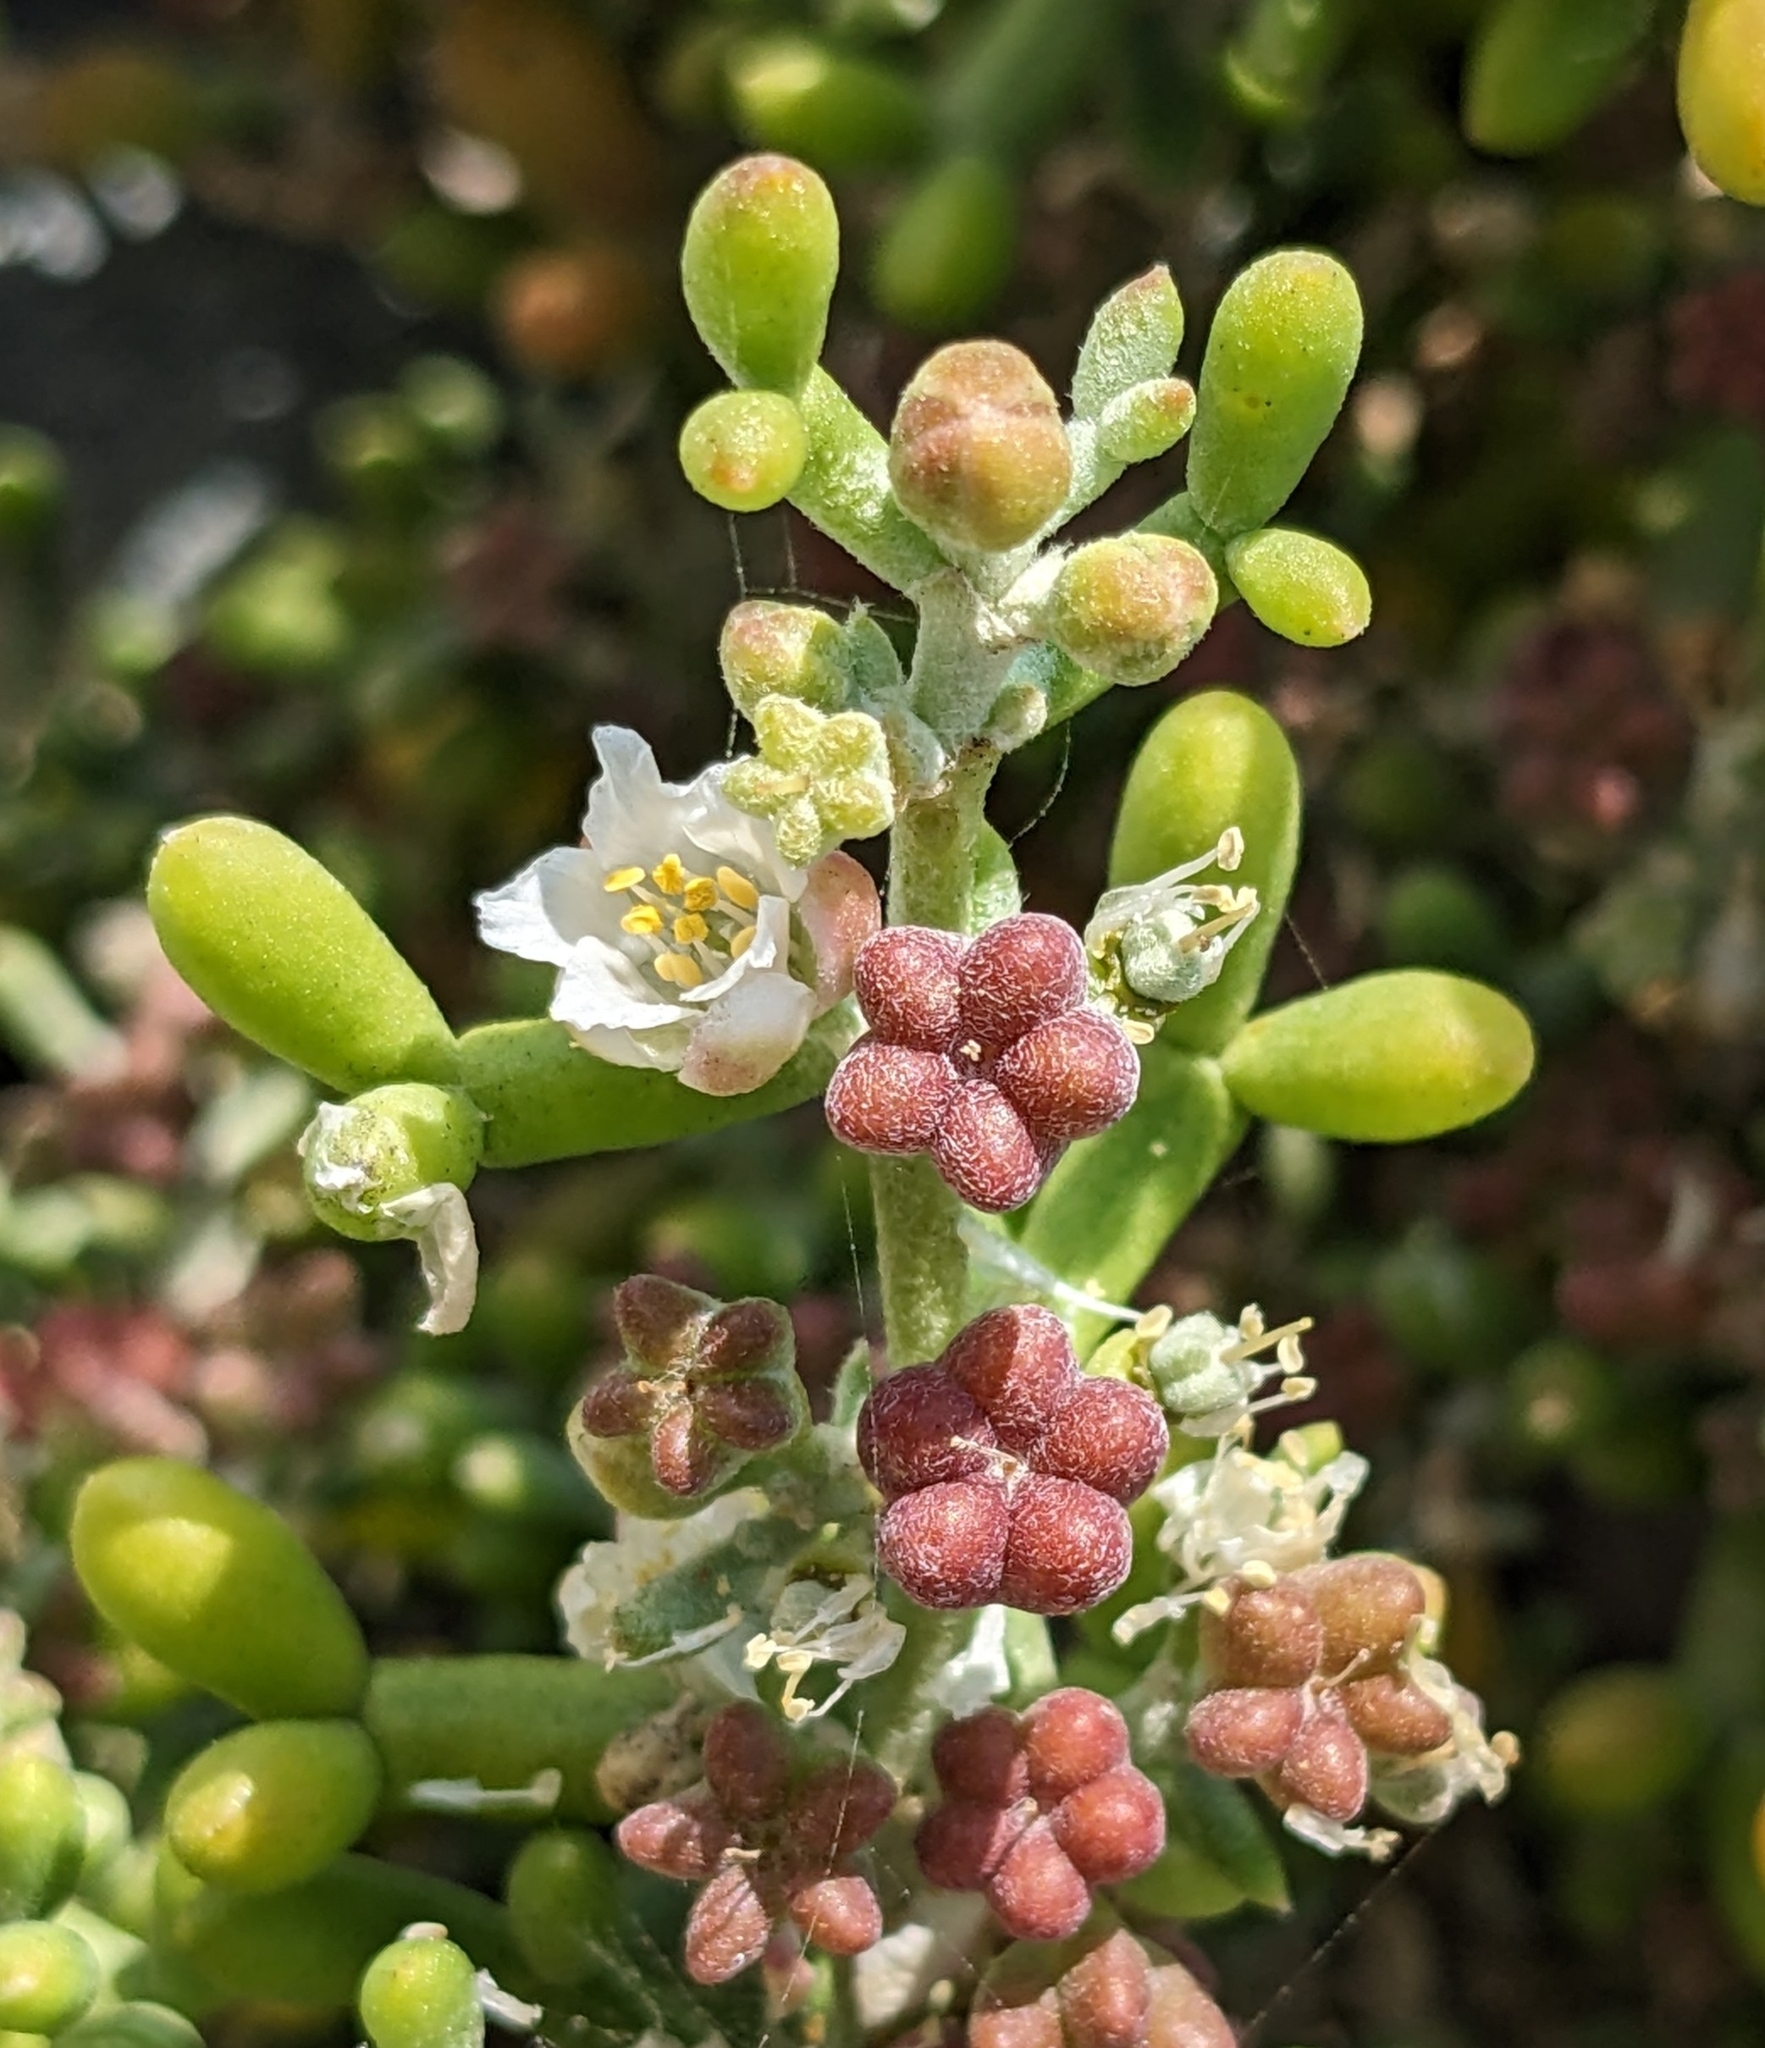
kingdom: Plantae
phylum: Tracheophyta
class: Magnoliopsida
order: Zygophyllales
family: Zygophyllaceae
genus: Tetraena
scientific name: Tetraena alba
